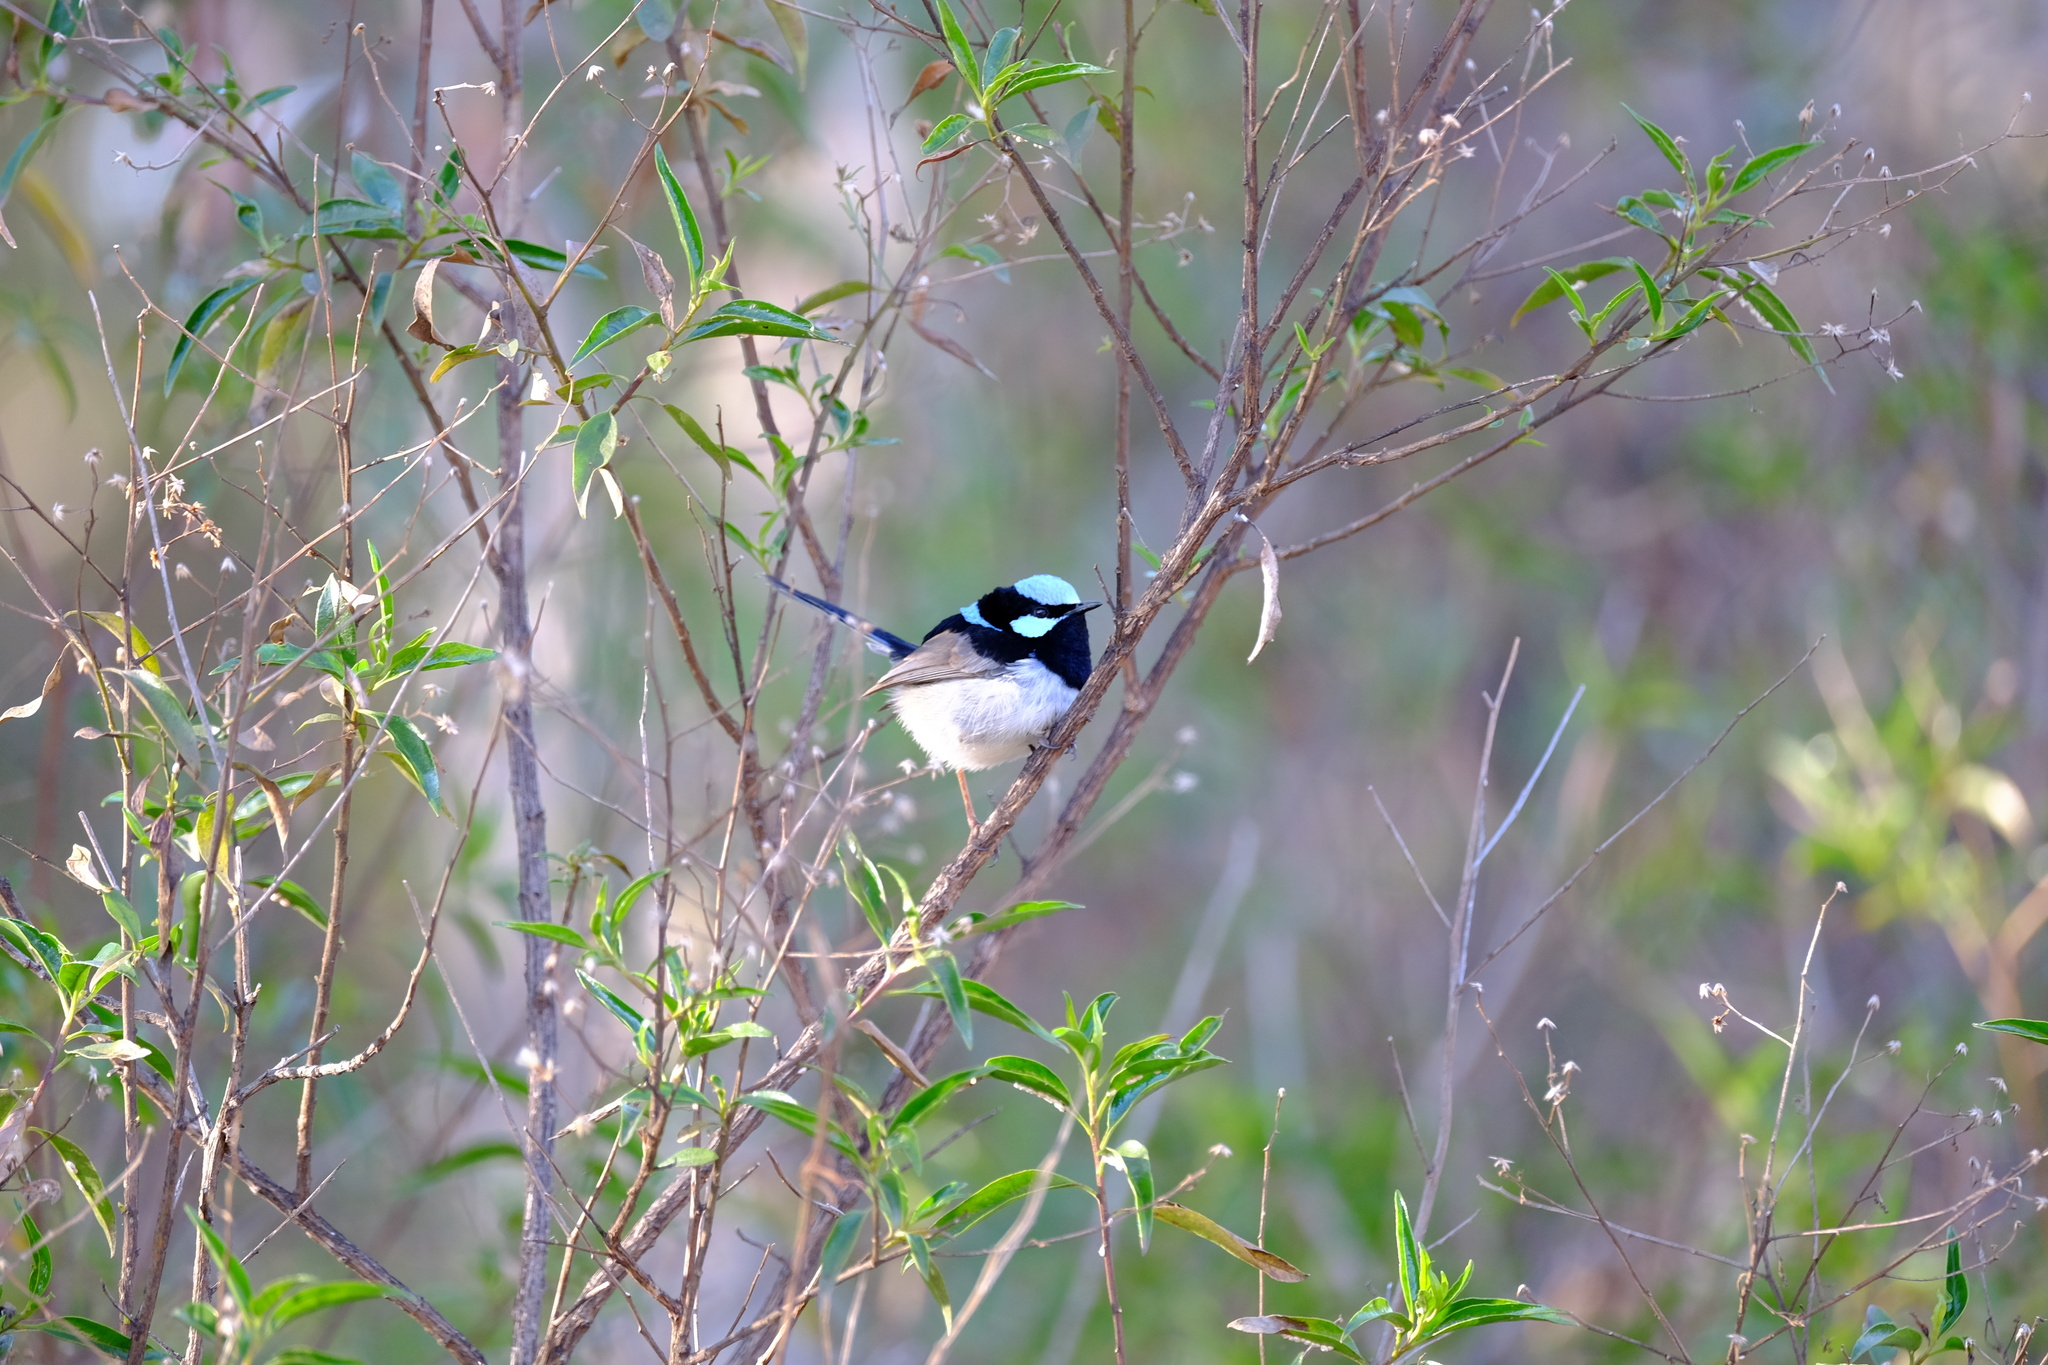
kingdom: Animalia
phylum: Chordata
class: Aves
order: Passeriformes
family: Maluridae
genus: Malurus
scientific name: Malurus cyaneus
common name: Superb fairywren
